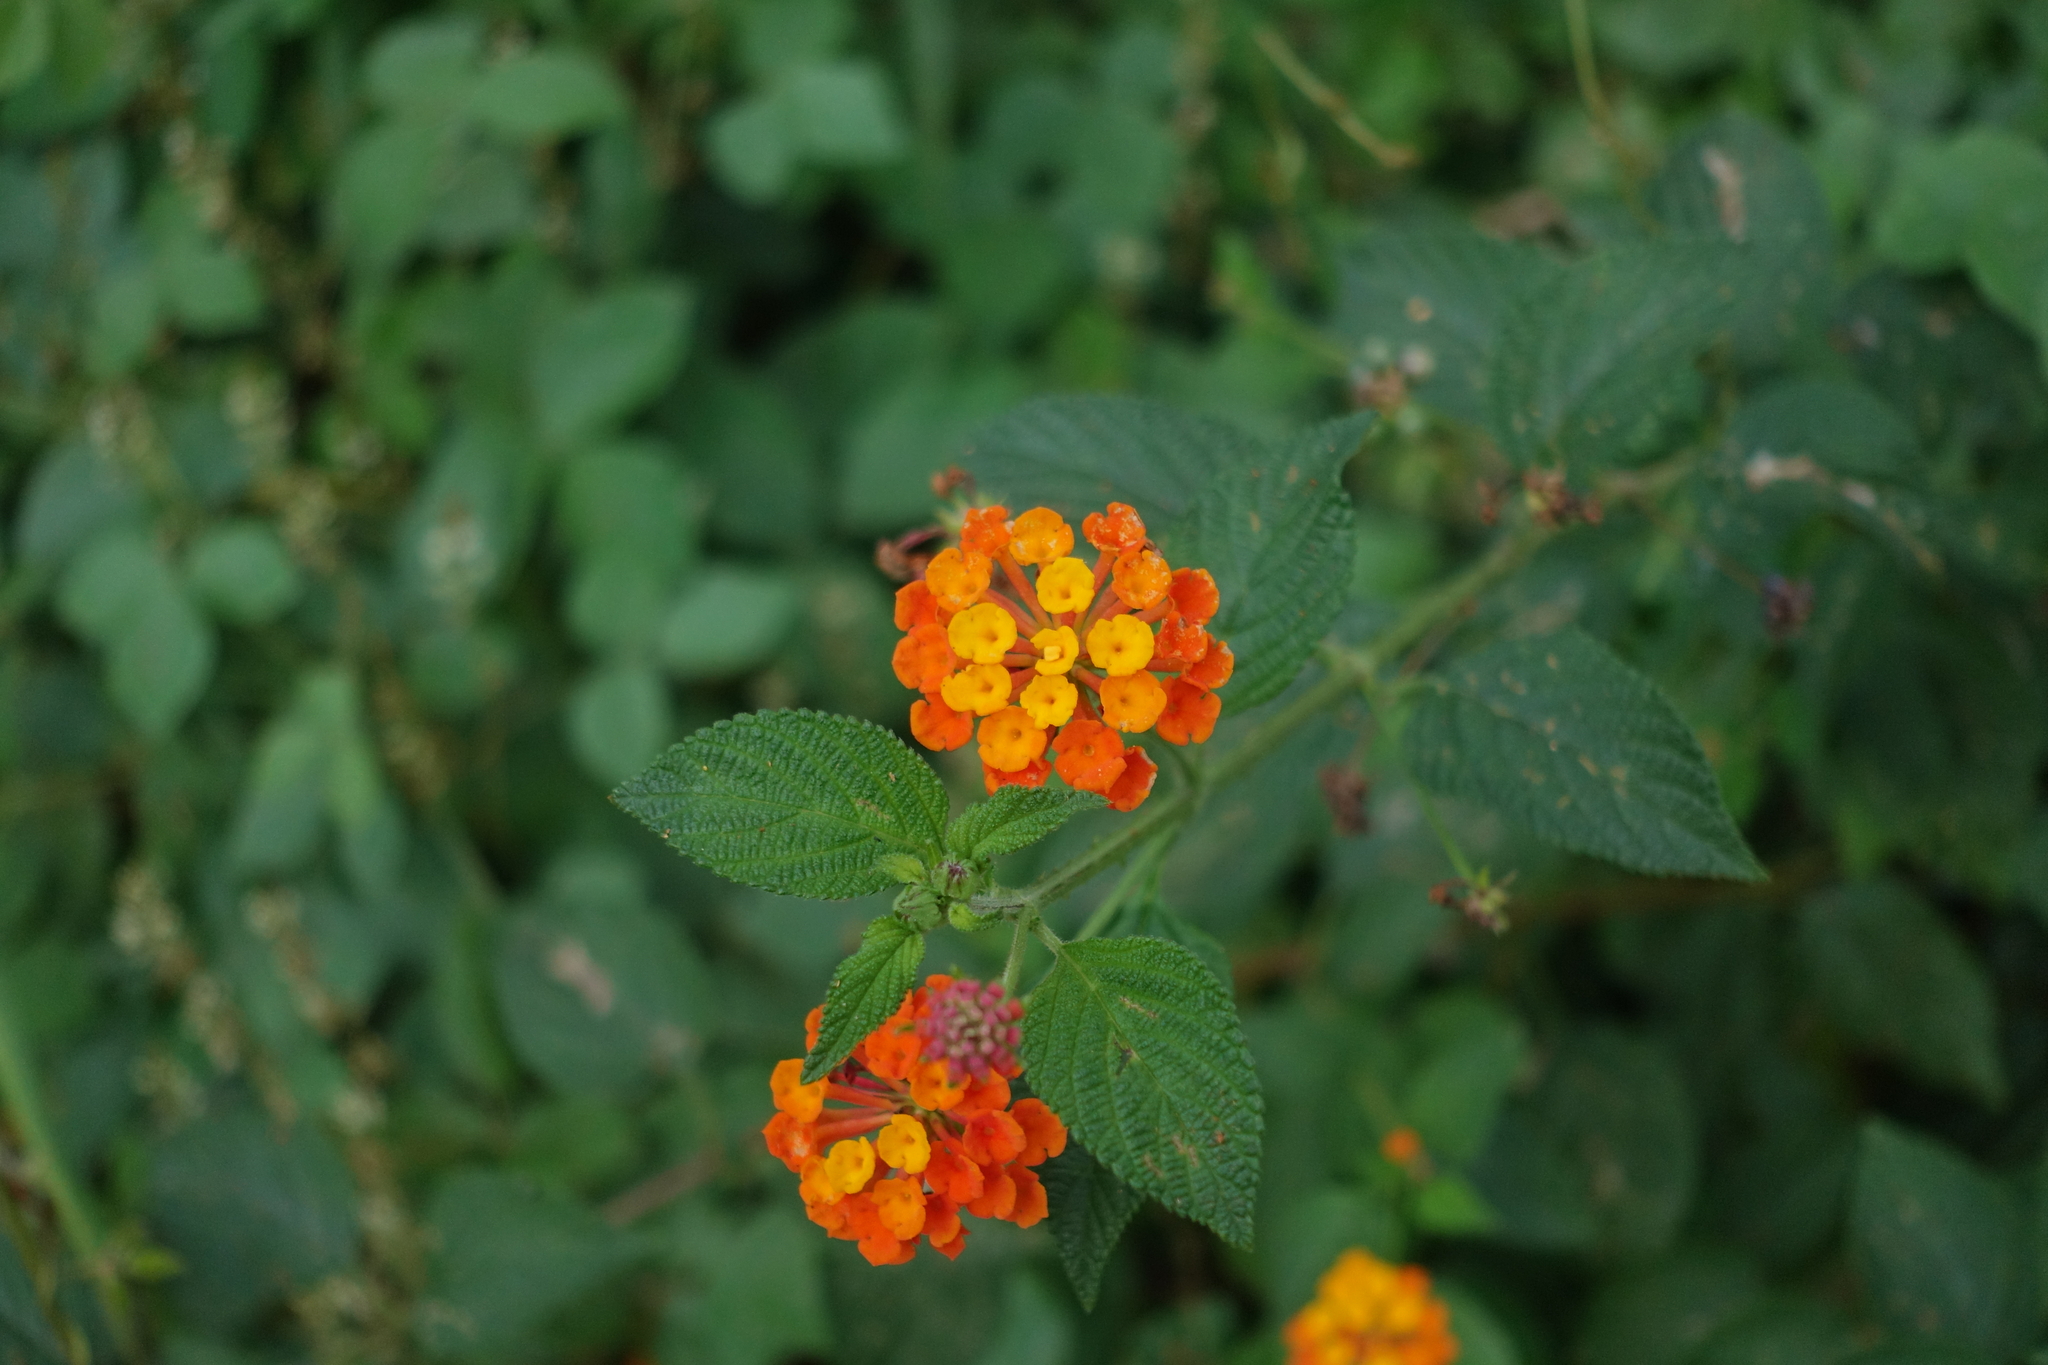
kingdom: Plantae
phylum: Tracheophyta
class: Magnoliopsida
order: Lamiales
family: Verbenaceae
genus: Lantana
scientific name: Lantana camara
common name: Lantana
